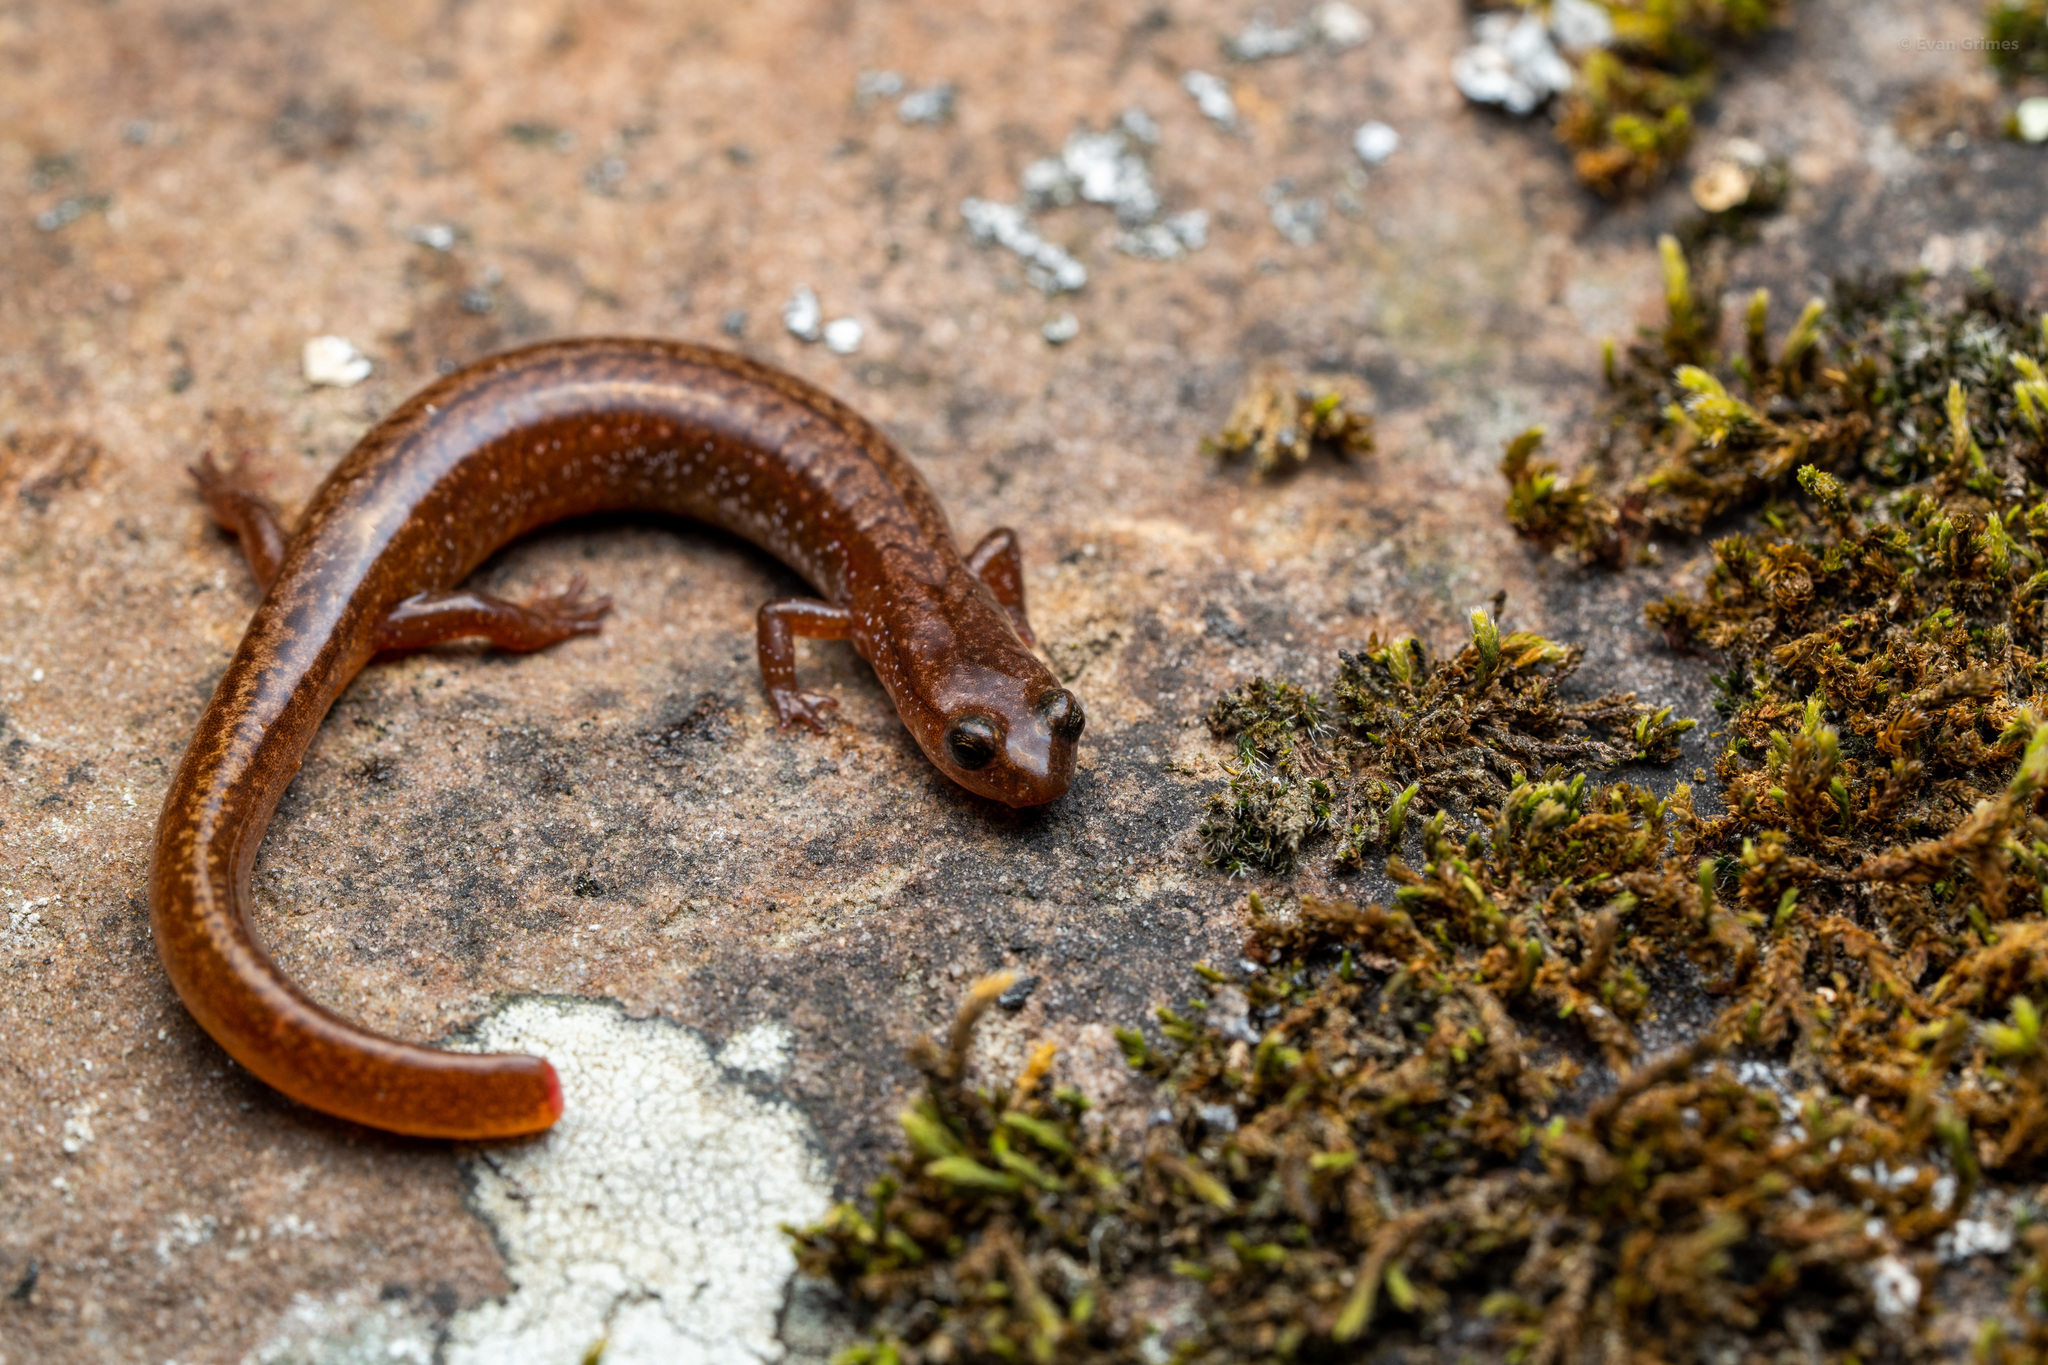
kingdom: Animalia
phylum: Chordata
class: Amphibia
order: Caudata
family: Plethodontidae
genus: Eurycea
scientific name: Eurycea multiplicata
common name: Many-ribbed salamander
